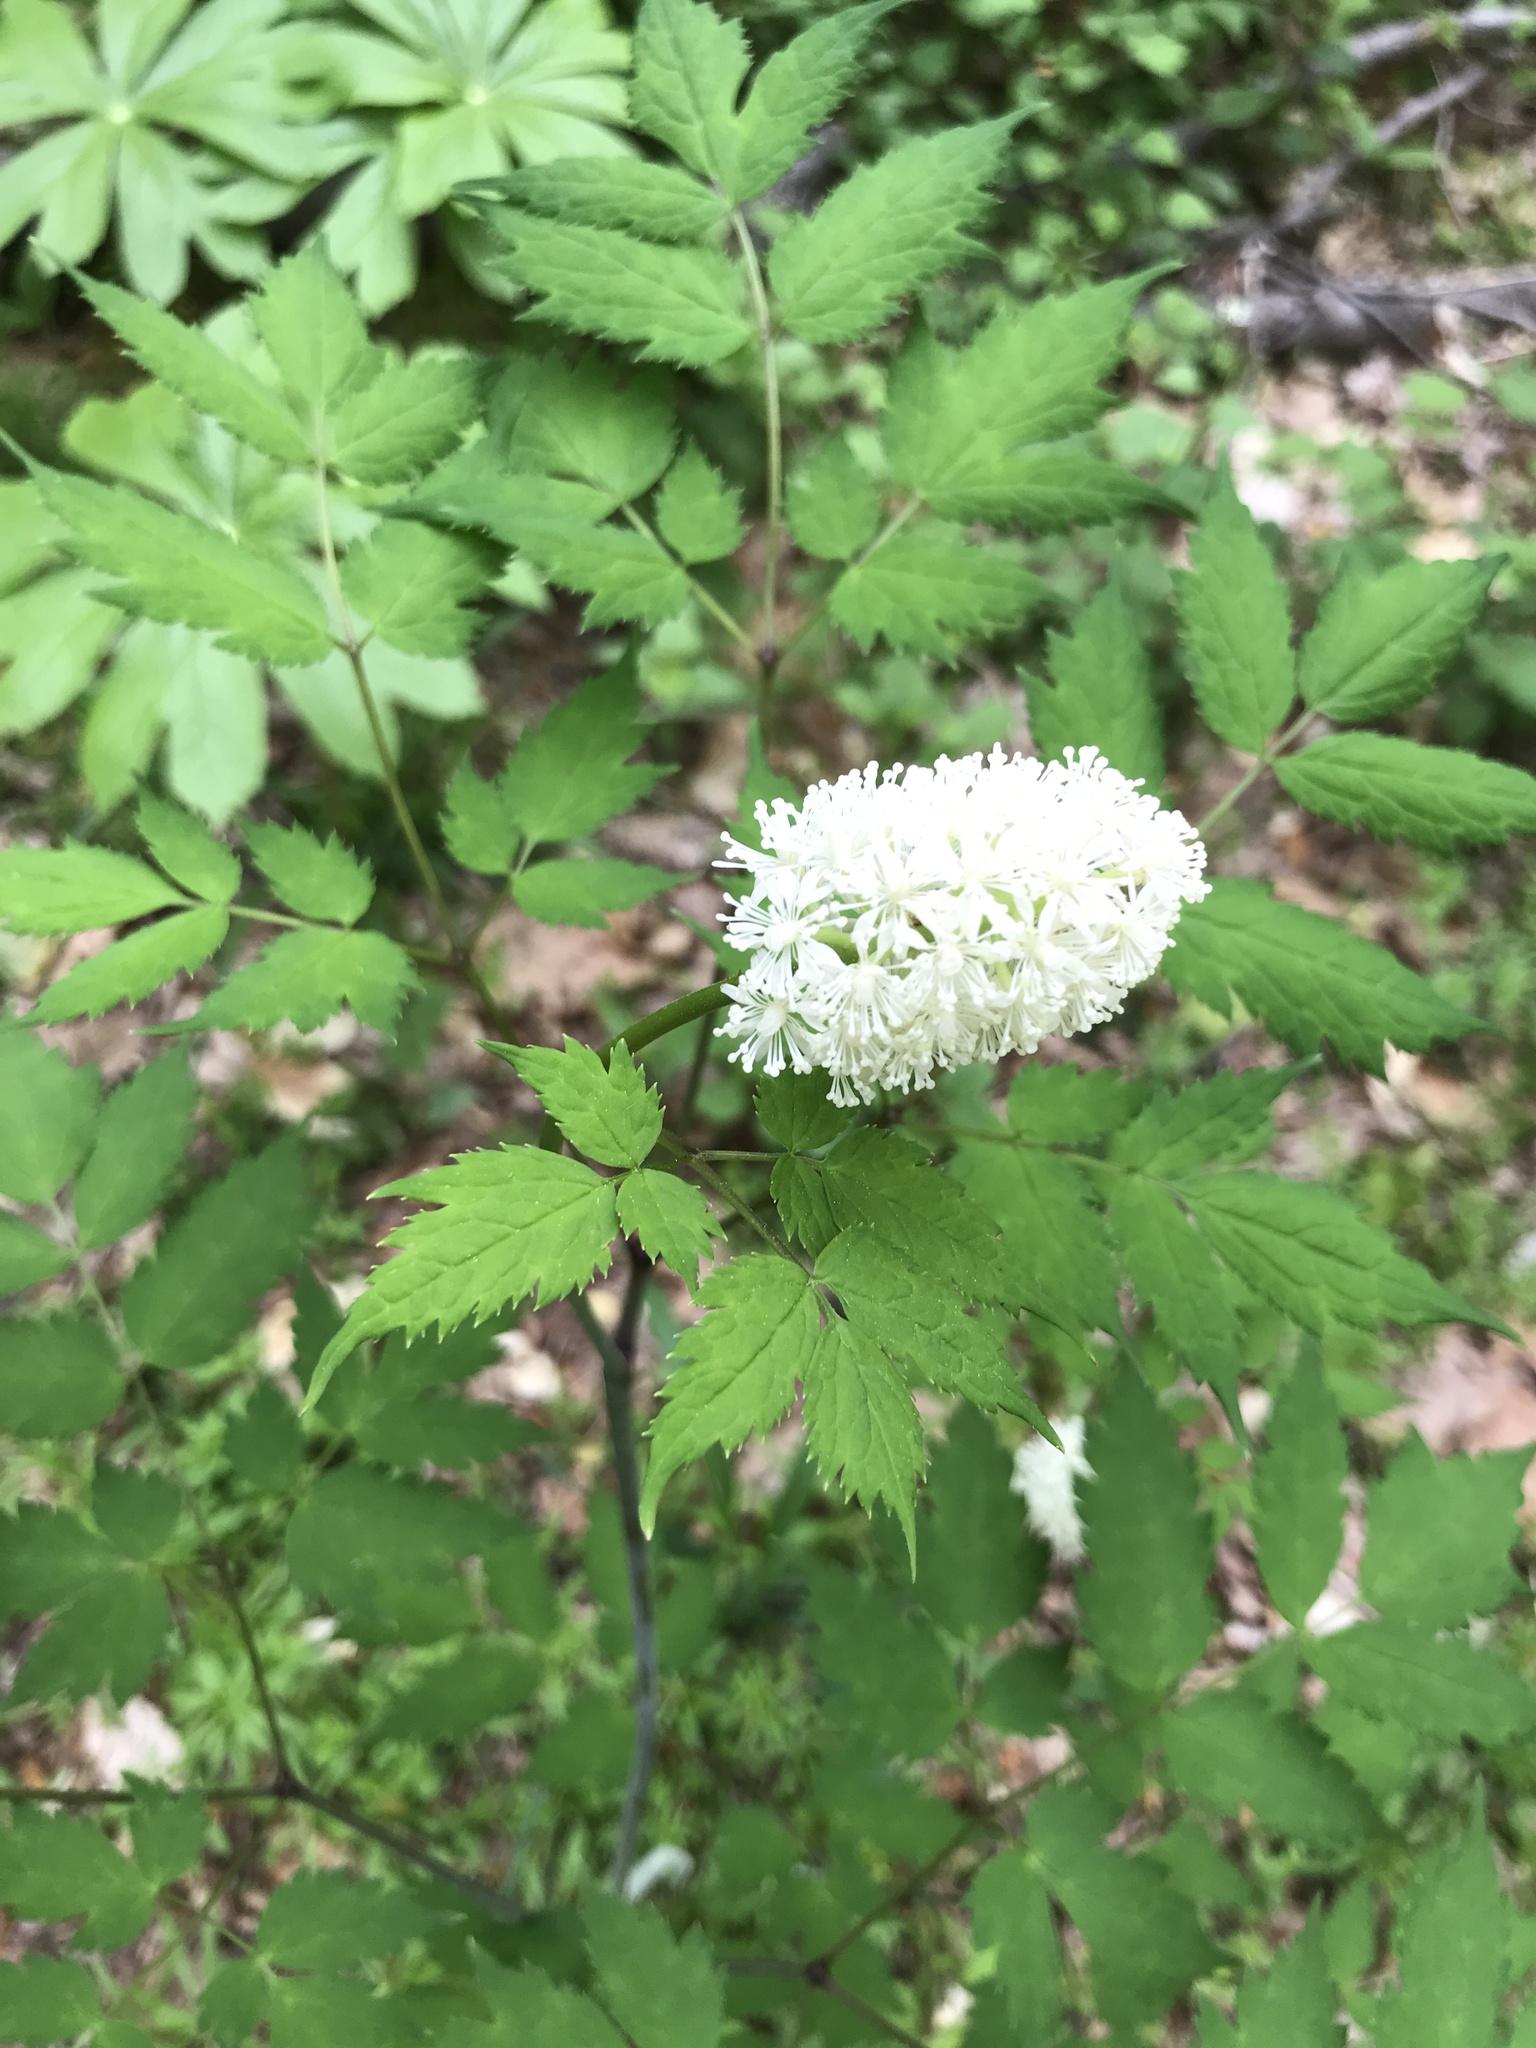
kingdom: Plantae
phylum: Tracheophyta
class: Magnoliopsida
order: Ranunculales
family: Ranunculaceae
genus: Actaea
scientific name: Actaea pachypoda
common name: Doll's-eyes
